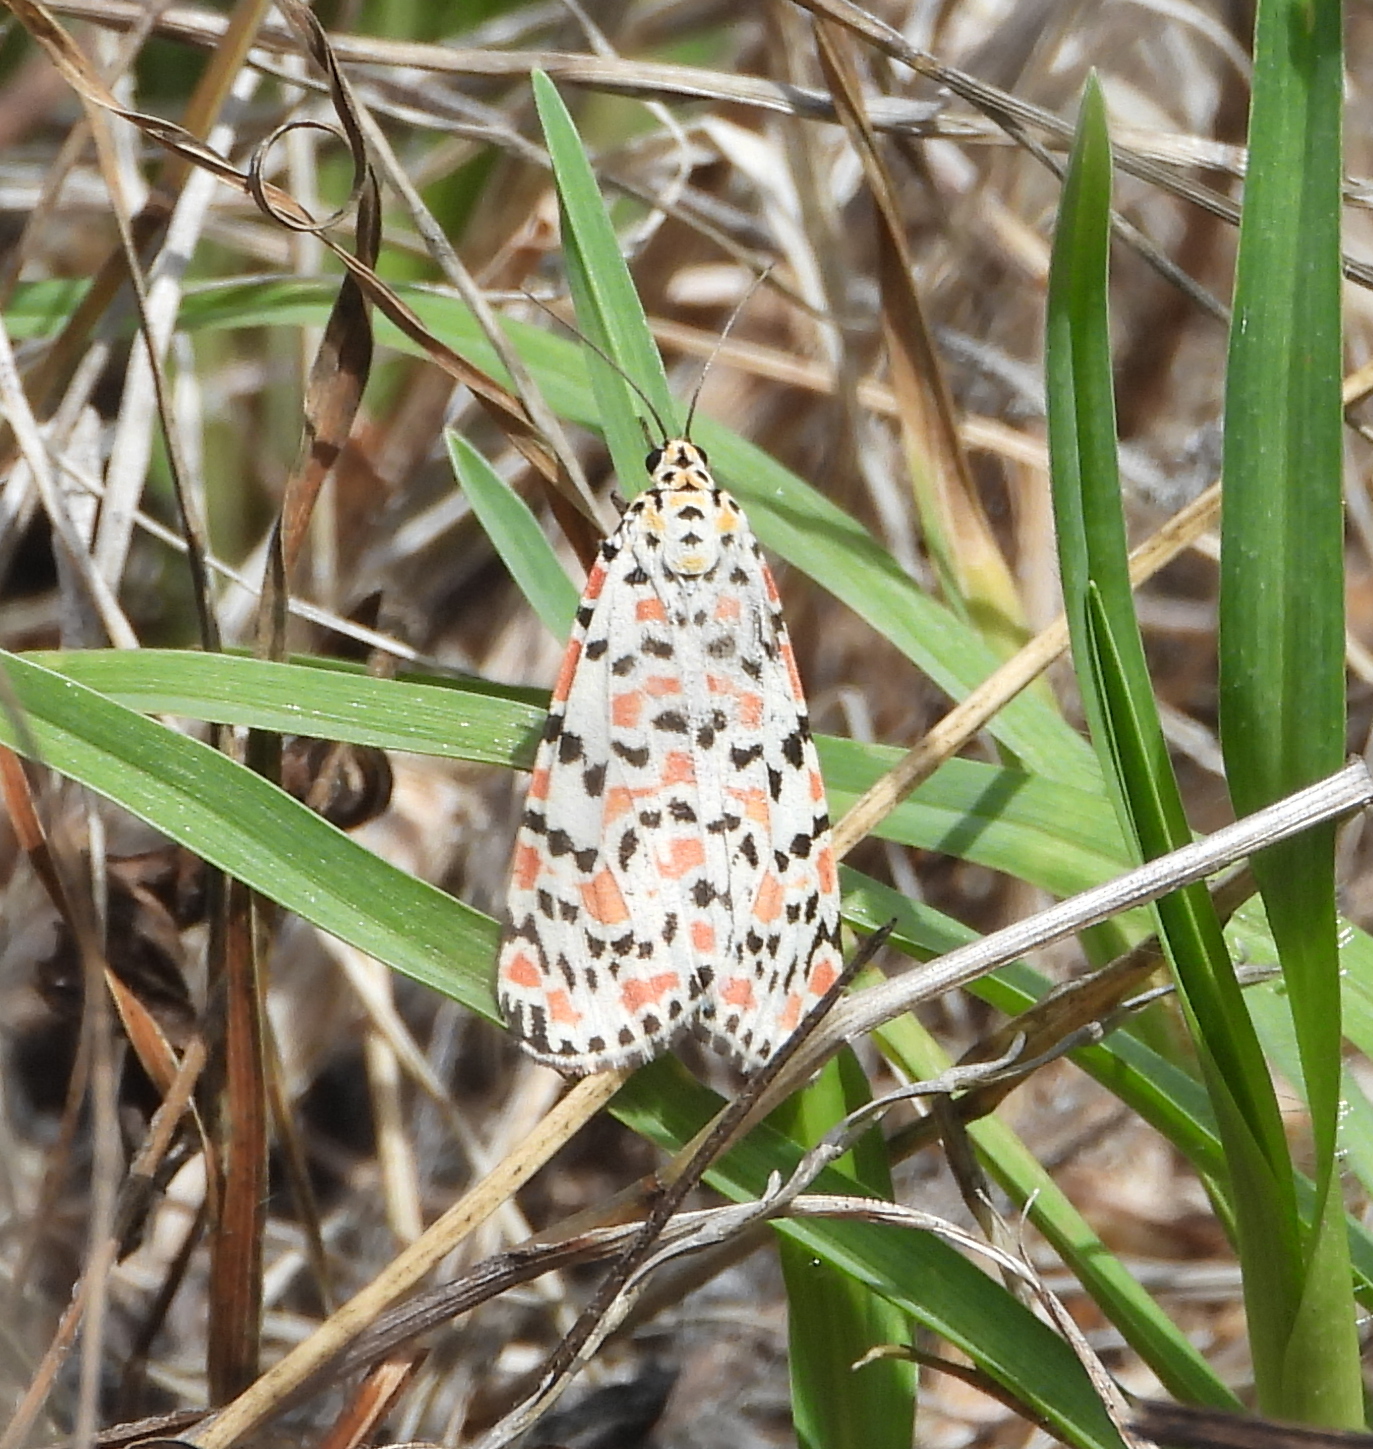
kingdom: Animalia
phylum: Arthropoda
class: Insecta
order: Lepidoptera
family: Erebidae
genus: Utetheisa
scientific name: Utetheisa pulchella
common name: Crimson speckled
